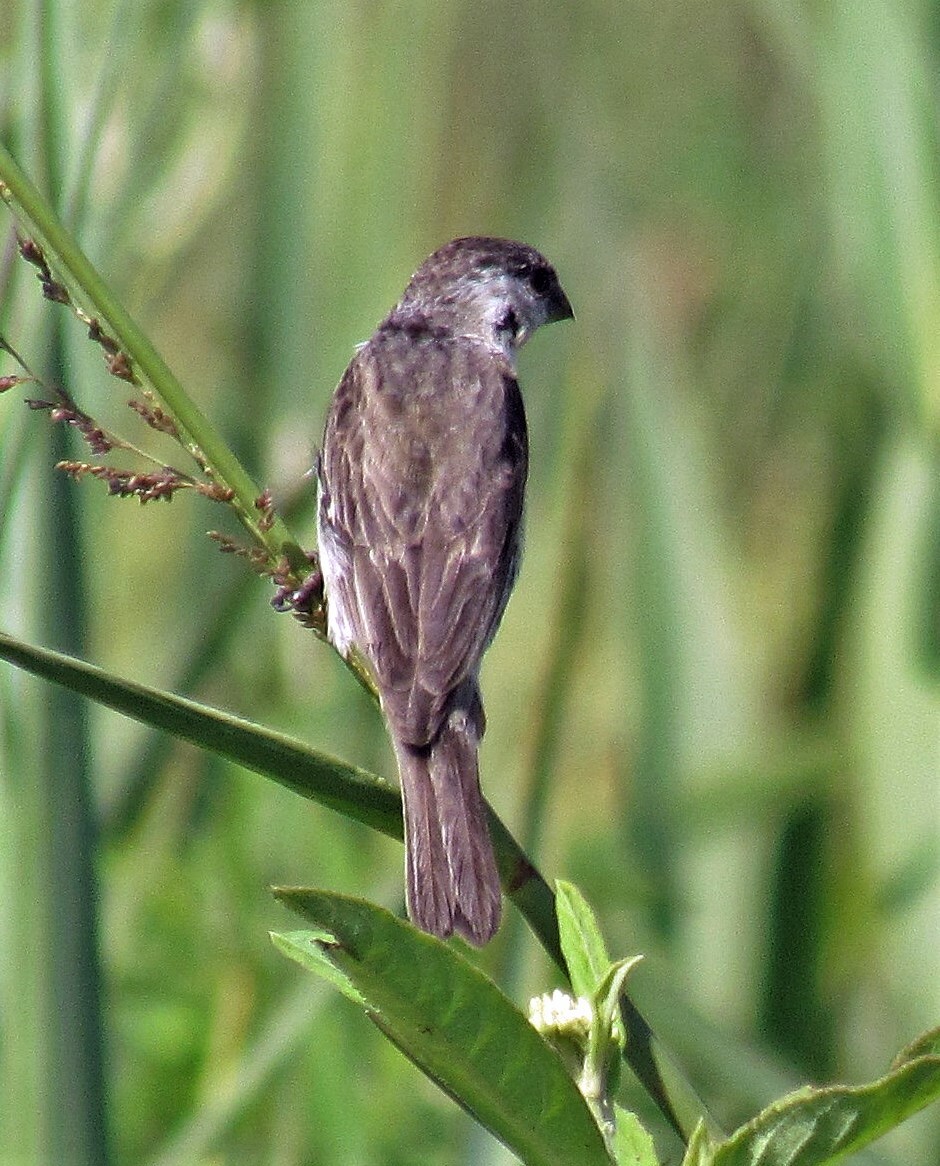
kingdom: Animalia
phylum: Chordata
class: Aves
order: Passeriformes
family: Thraupidae
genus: Sporophila
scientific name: Sporophila pileata
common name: Pearly-bellied seedeater
